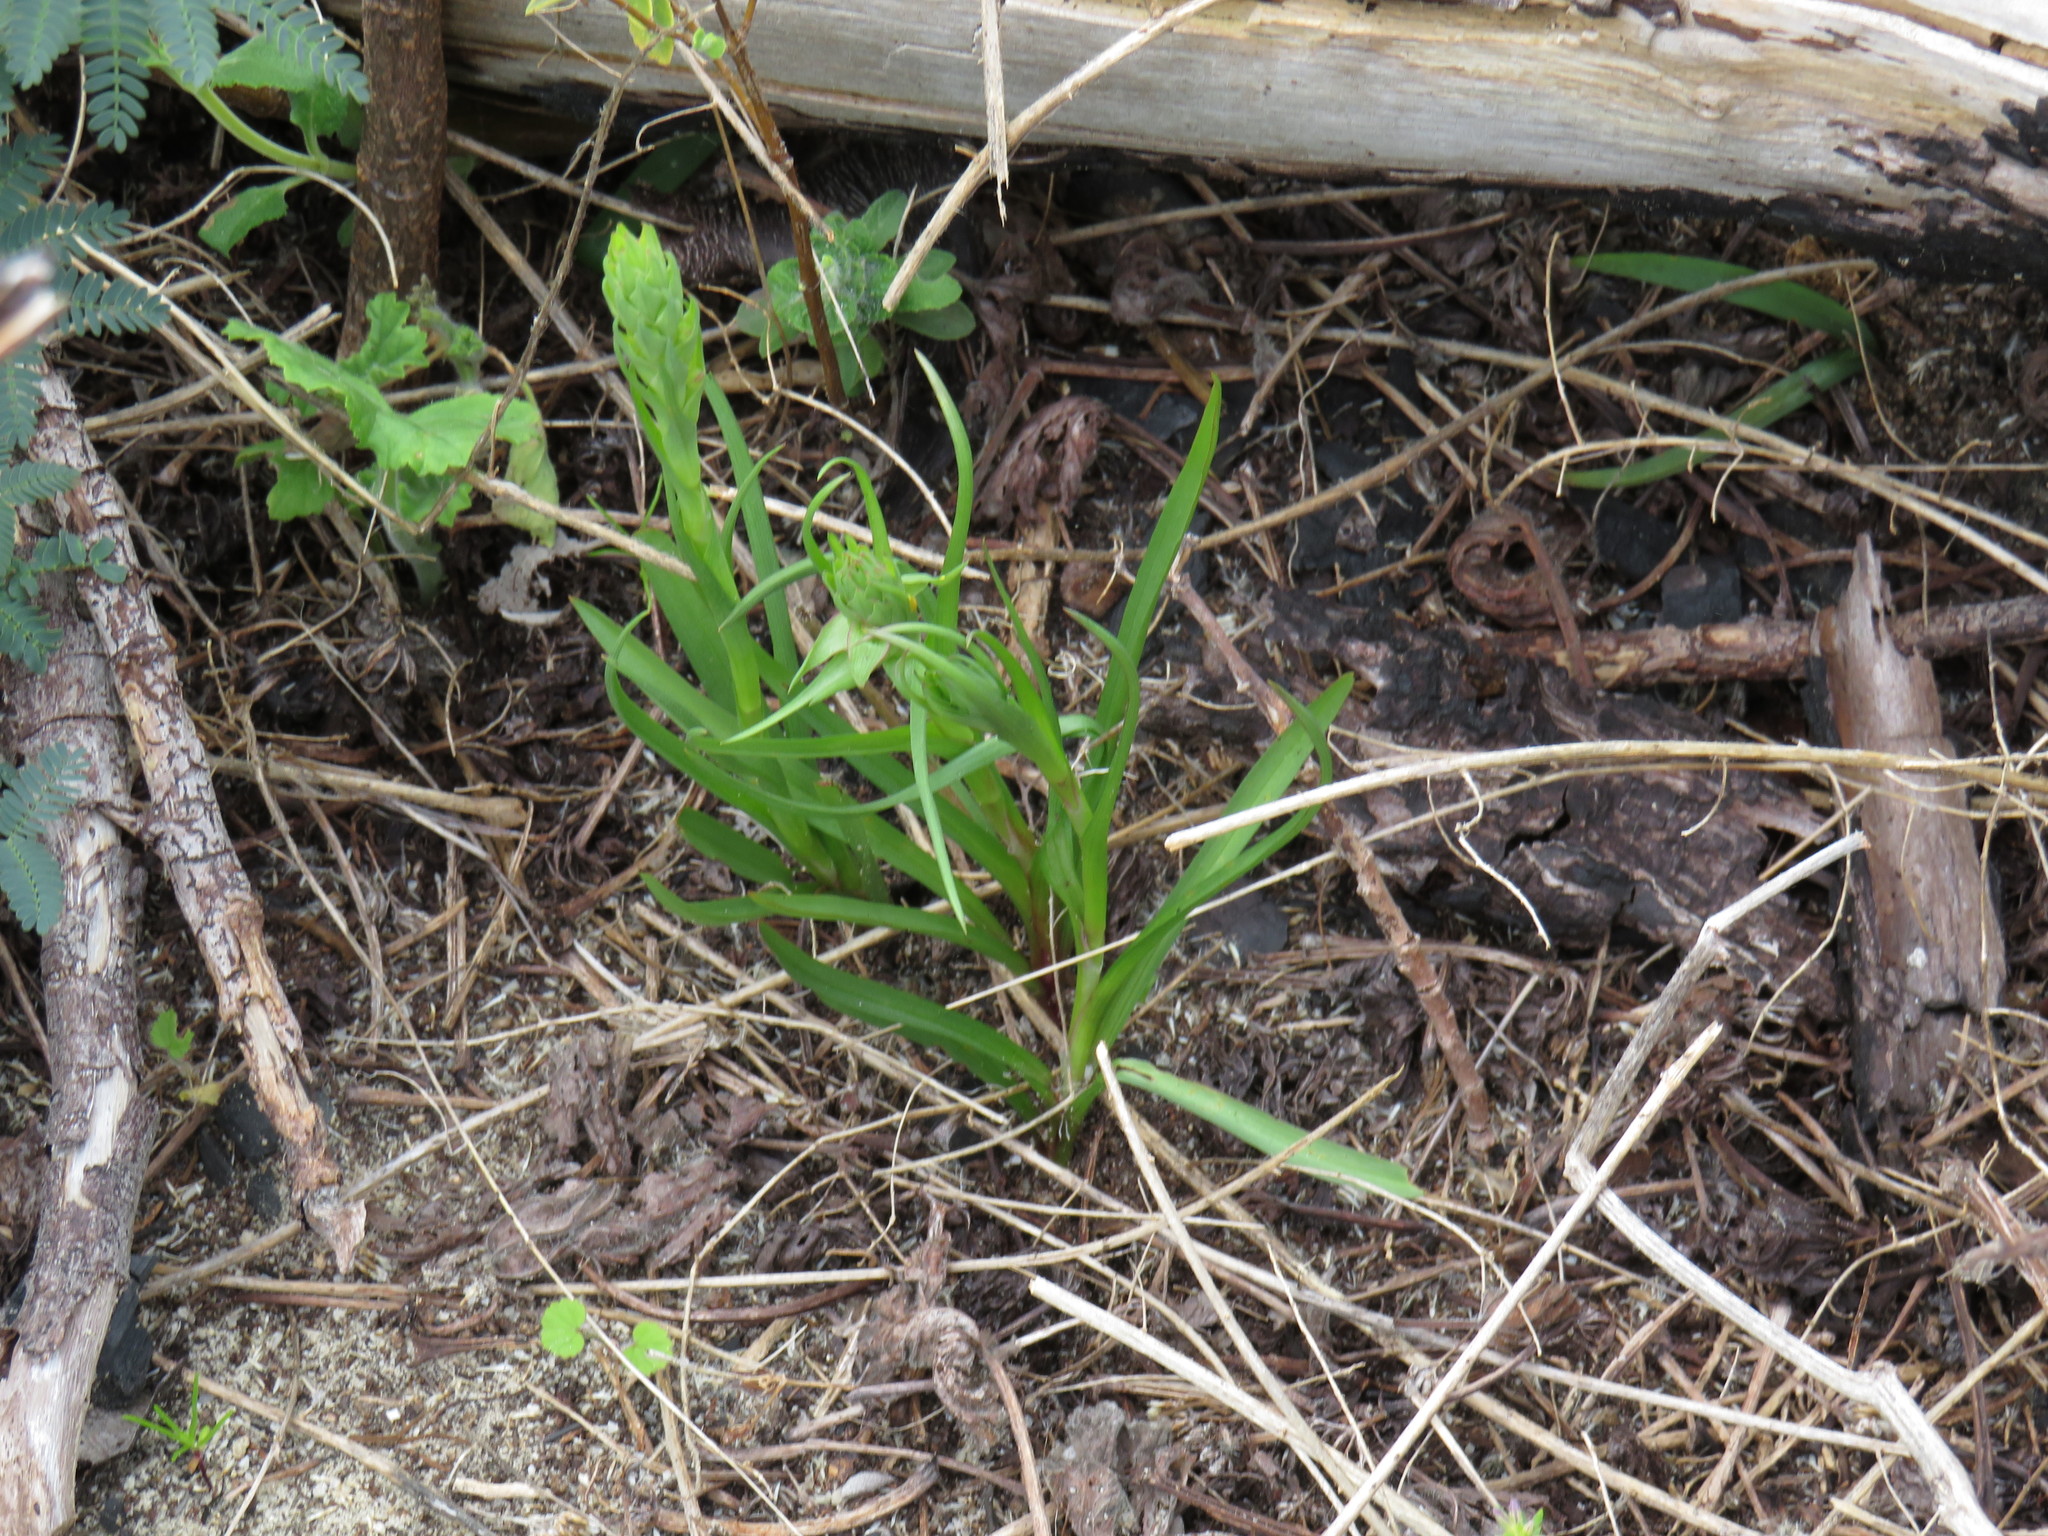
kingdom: Plantae
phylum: Tracheophyta
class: Liliopsida
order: Asparagales
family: Orchidaceae
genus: Disa
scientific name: Disa bracteata
